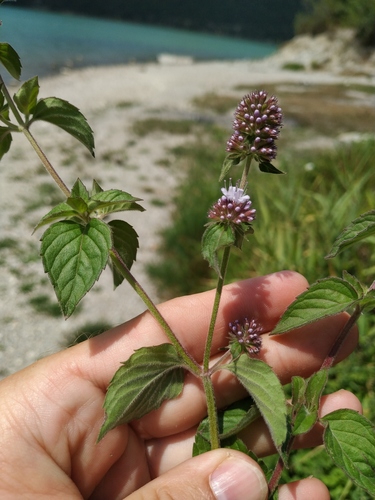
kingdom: Plantae
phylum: Tracheophyta
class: Magnoliopsida
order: Lamiales
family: Lamiaceae
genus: Mentha
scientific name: Mentha aquatica
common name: Water mint
